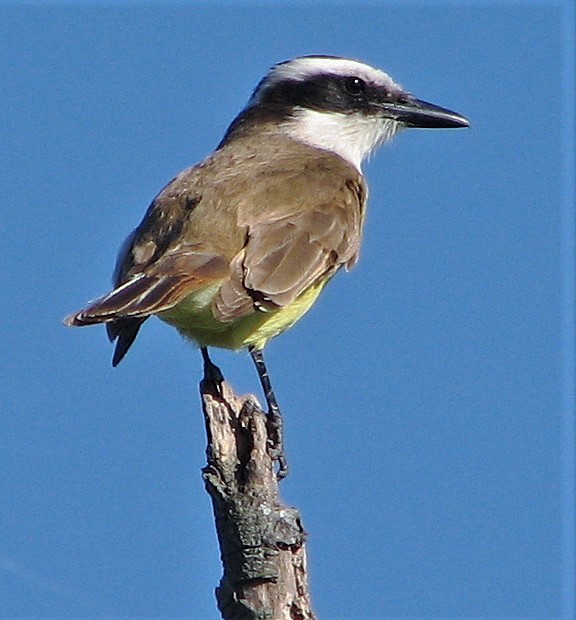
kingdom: Animalia
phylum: Chordata
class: Aves
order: Passeriformes
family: Tyrannidae
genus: Pitangus
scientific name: Pitangus sulphuratus
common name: Great kiskadee
